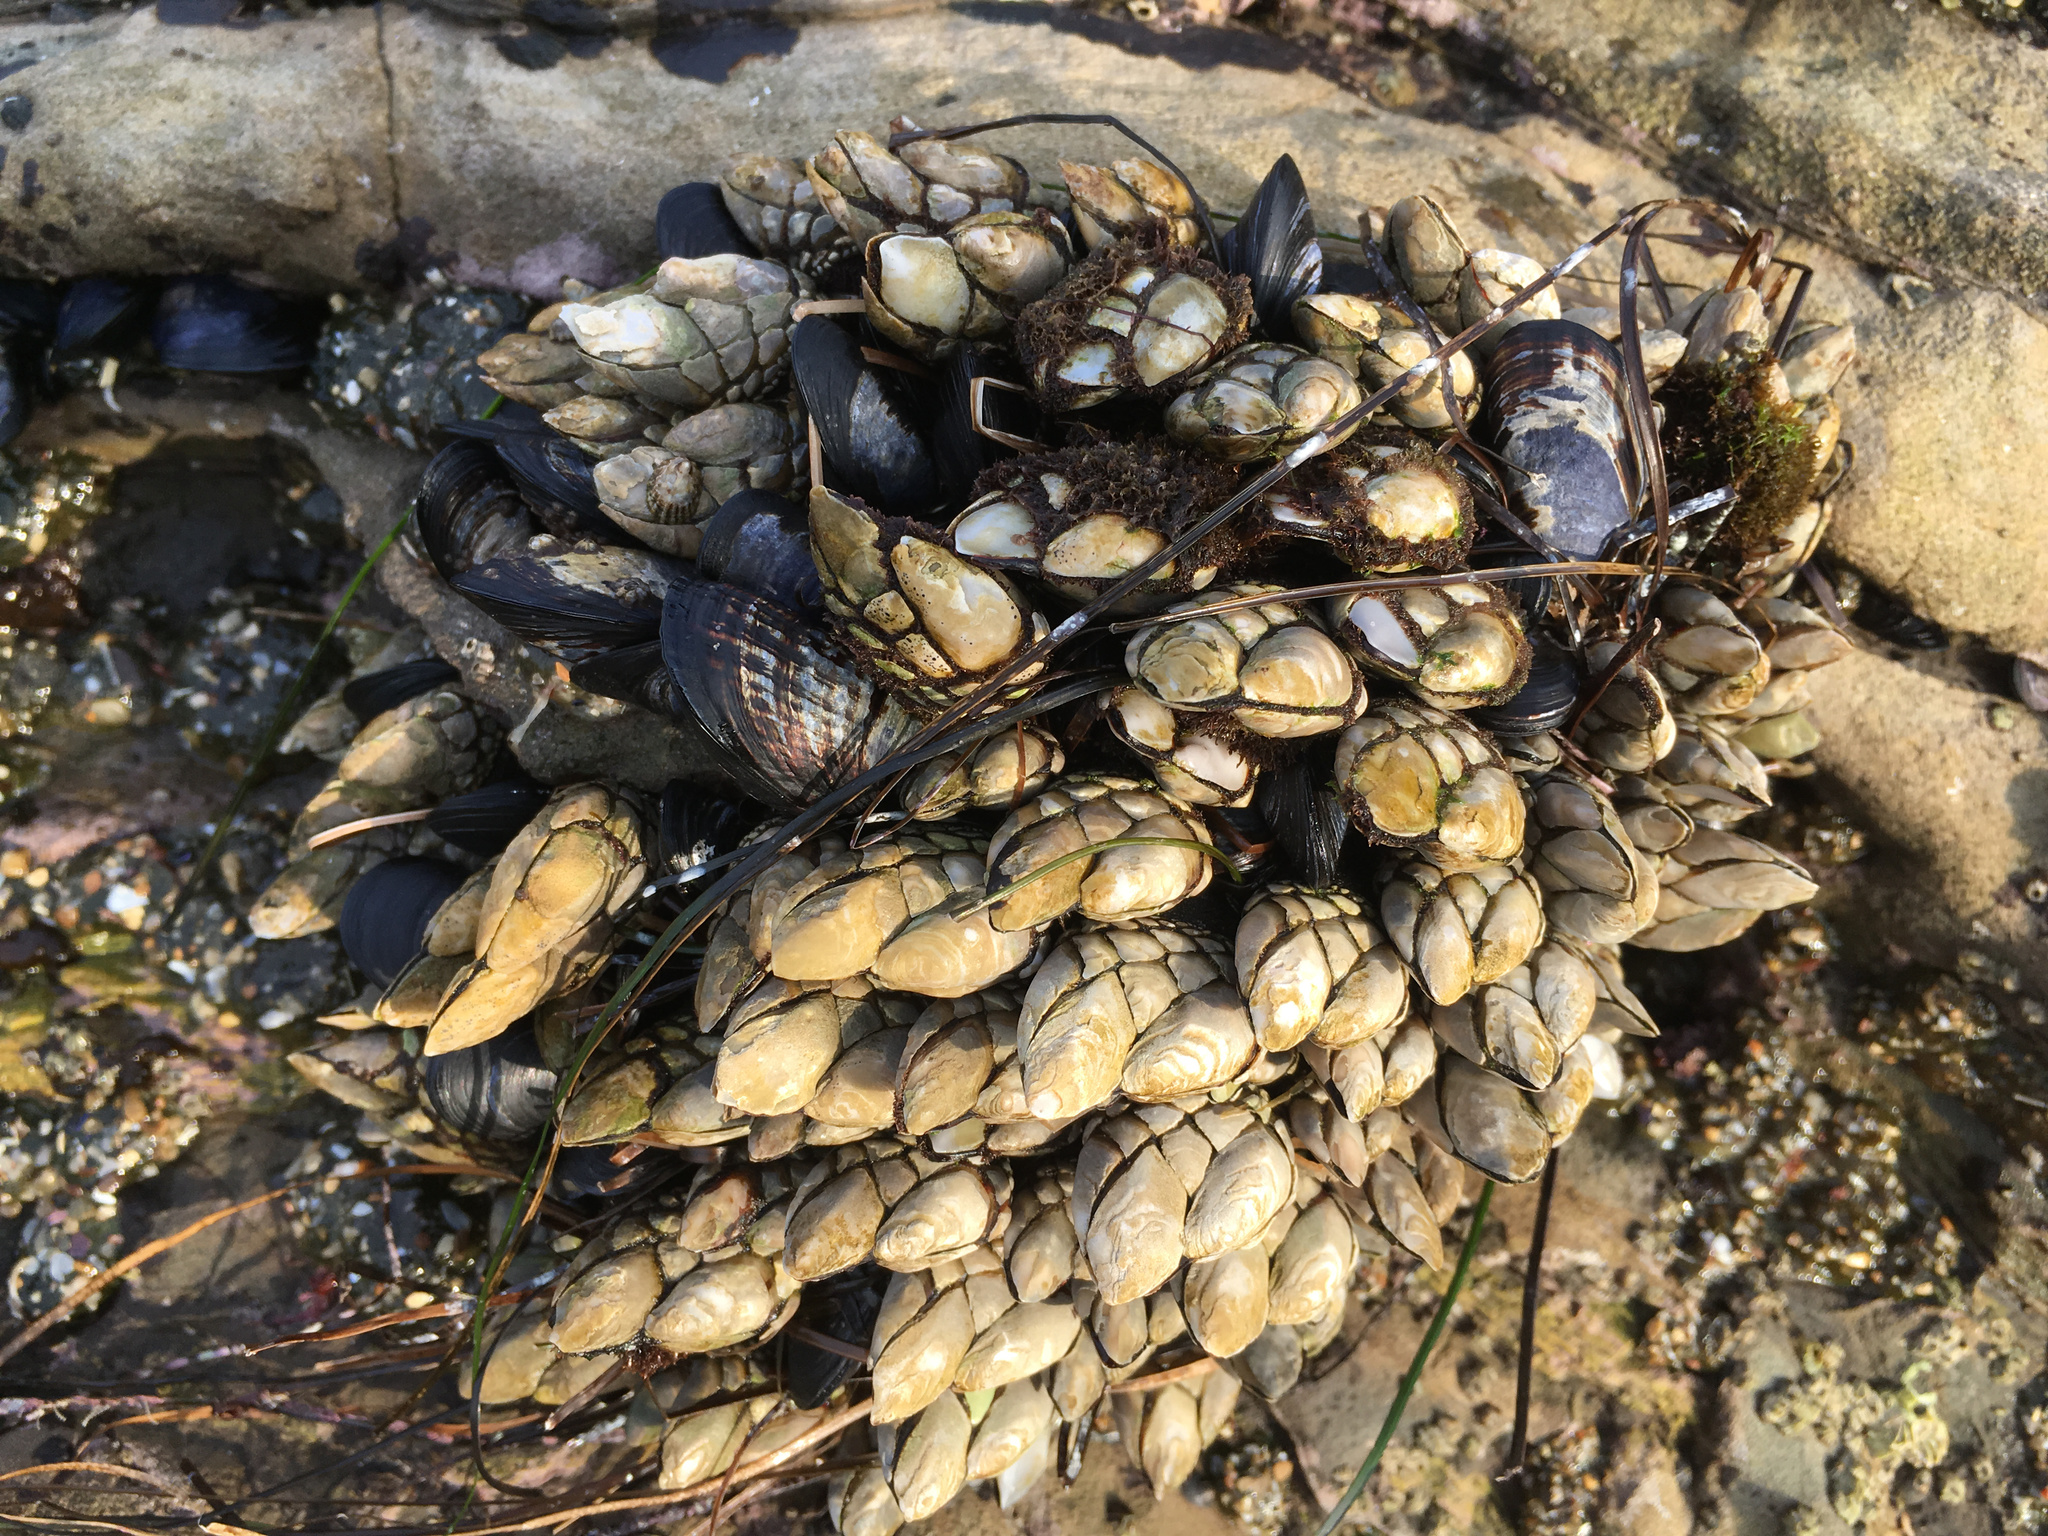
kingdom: Animalia
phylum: Arthropoda
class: Maxillopoda
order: Pedunculata
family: Pollicipedidae
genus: Pollicipes
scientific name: Pollicipes polymerus
